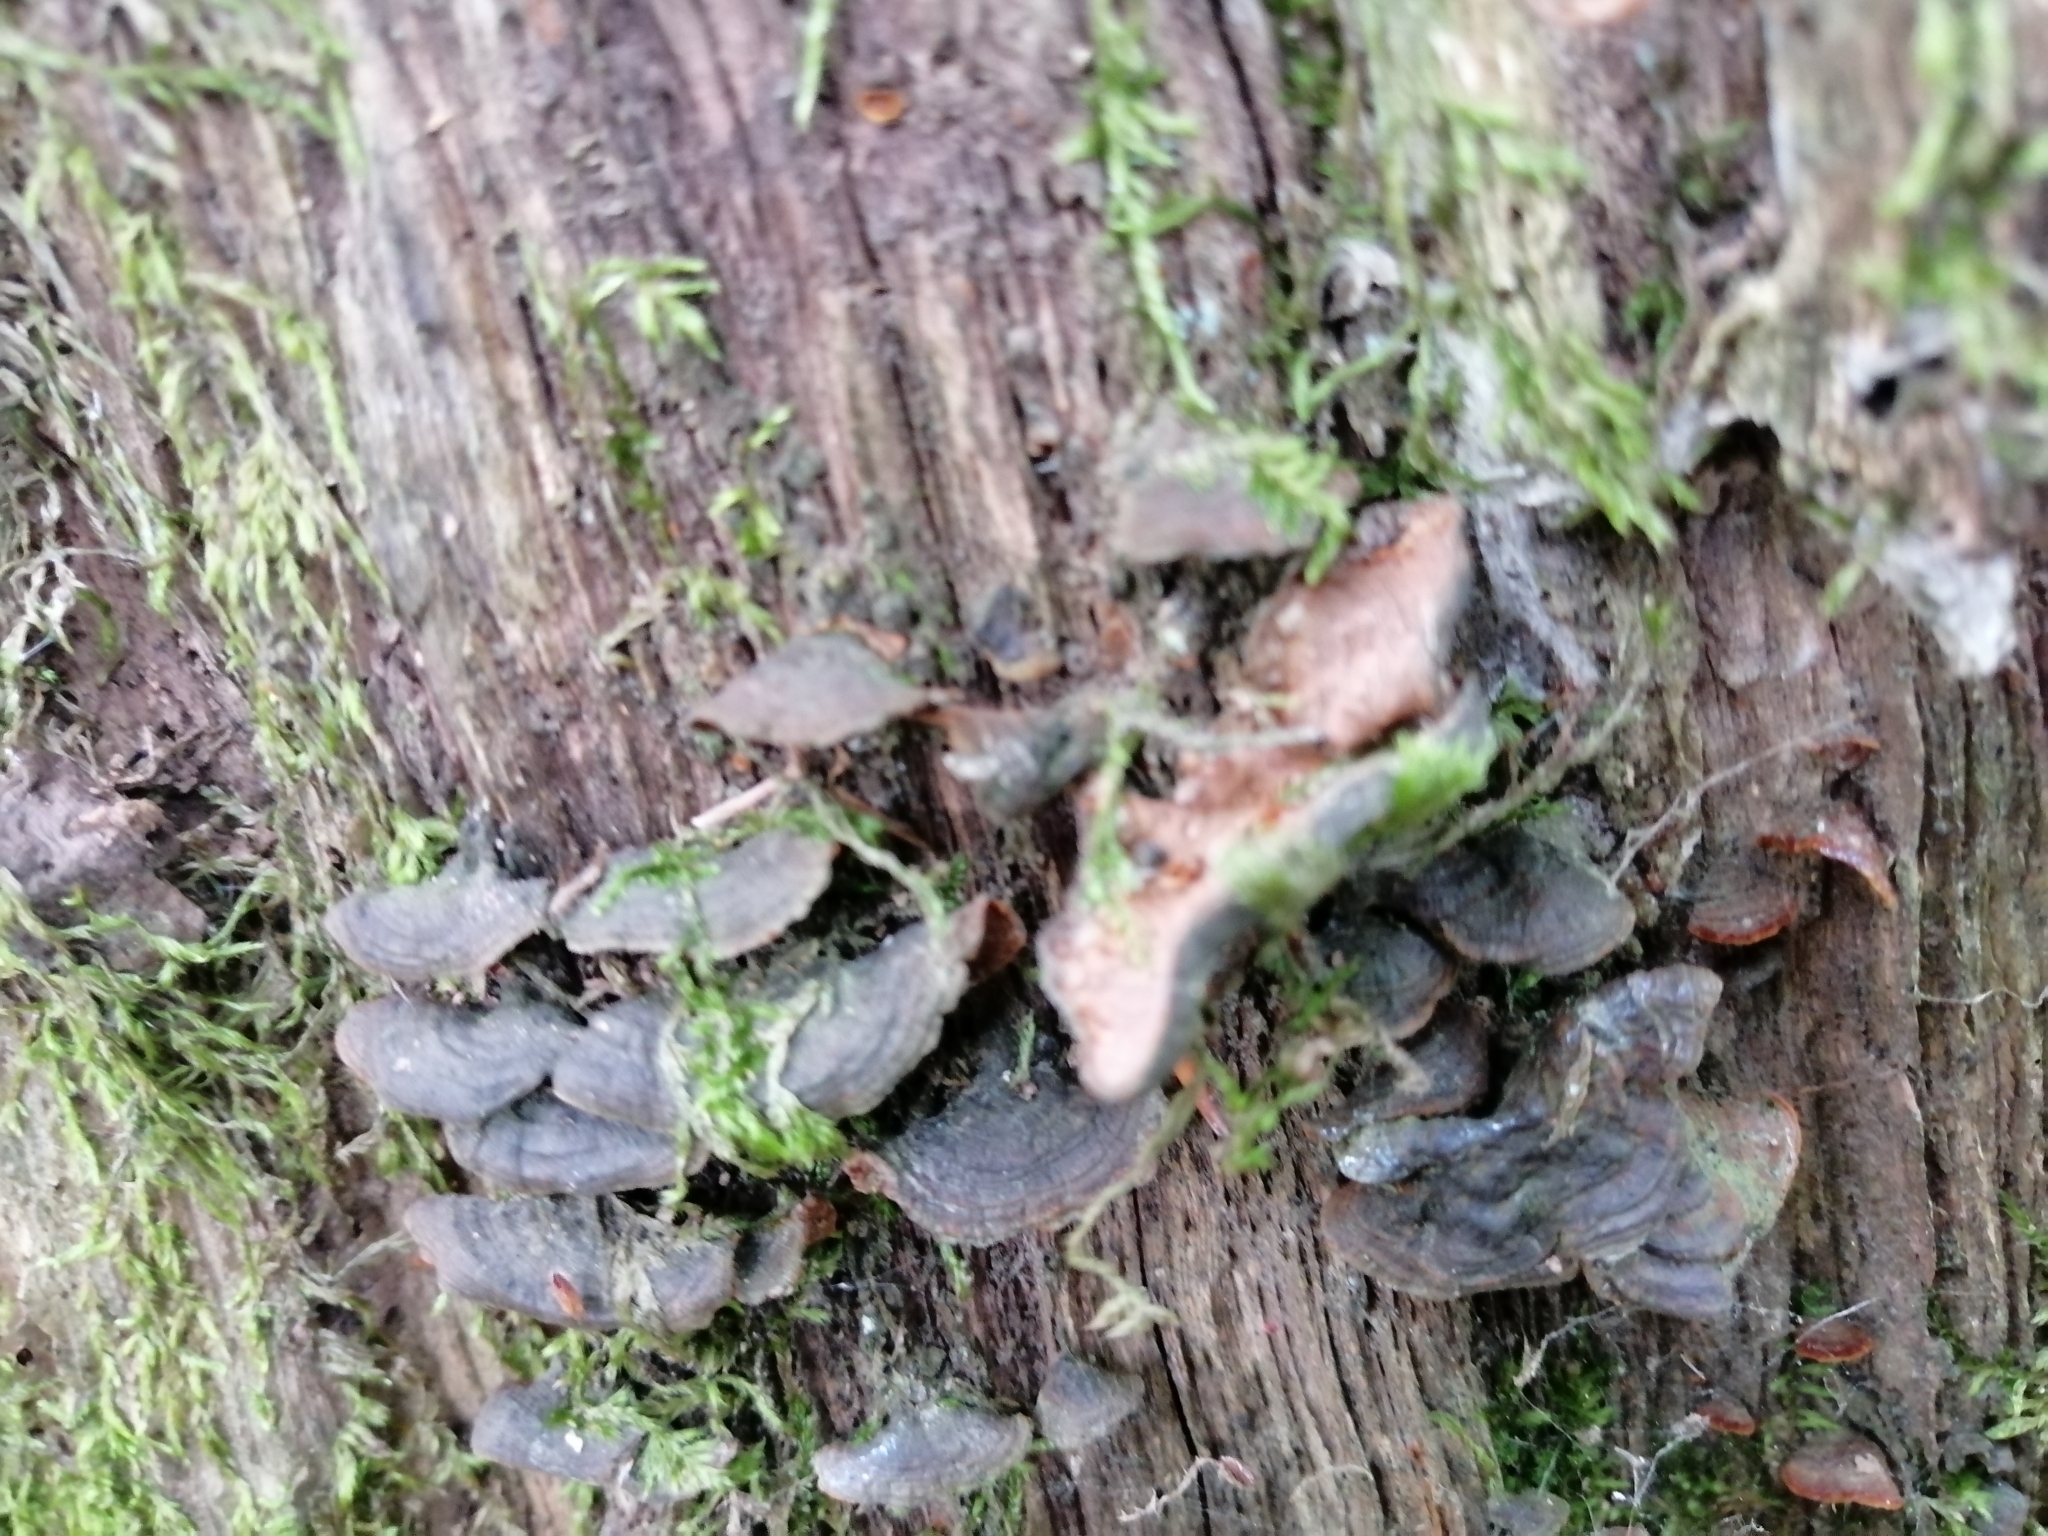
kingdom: Fungi
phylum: Basidiomycota
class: Agaricomycetes
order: Hymenochaetales
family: Hymenochaetaceae
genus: Hymenochaete
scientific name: Hymenochaete rubiginosa
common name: Oak curtain crust
